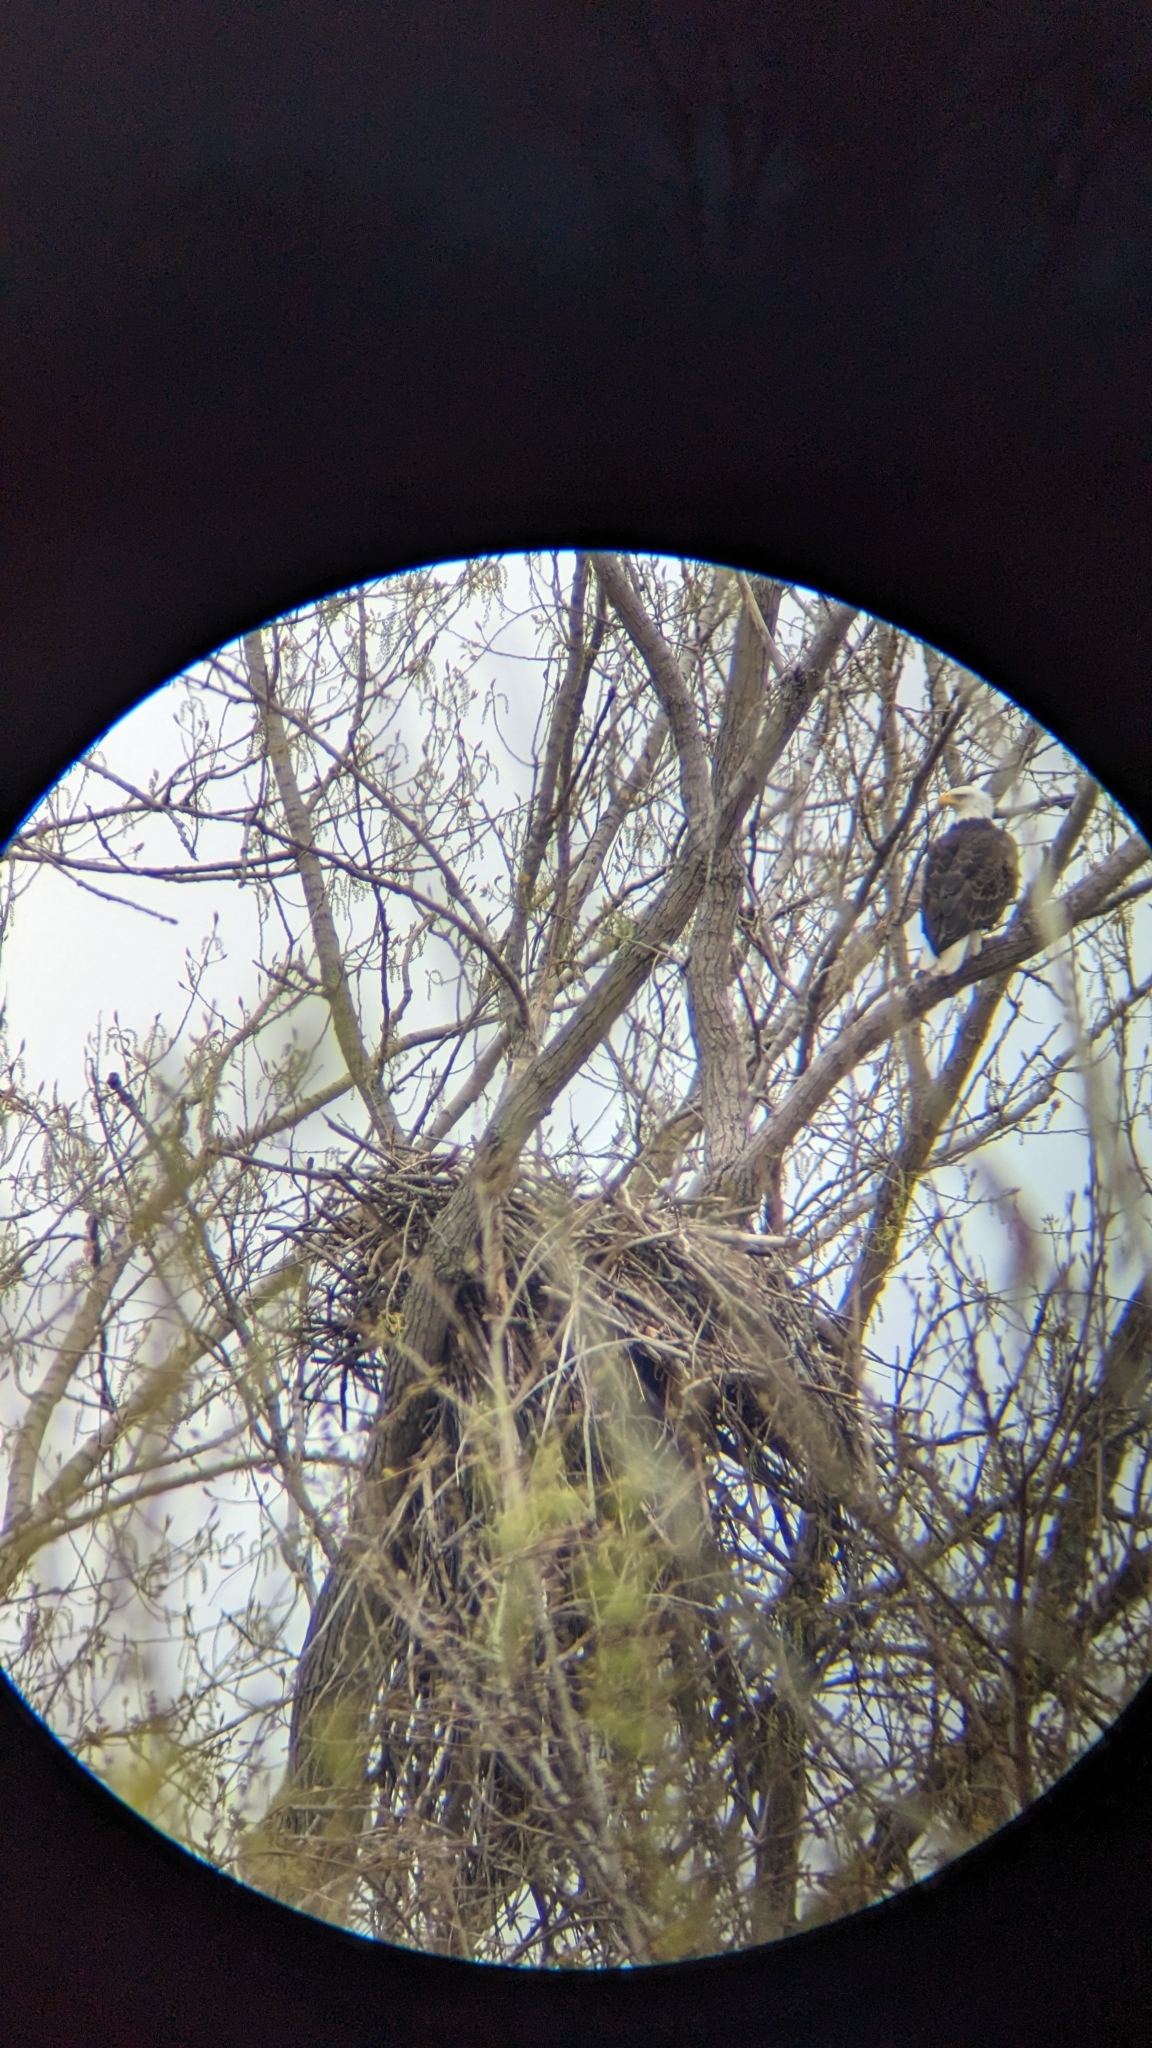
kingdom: Animalia
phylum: Chordata
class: Aves
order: Accipitriformes
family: Accipitridae
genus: Haliaeetus
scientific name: Haliaeetus leucocephalus
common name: Bald eagle
